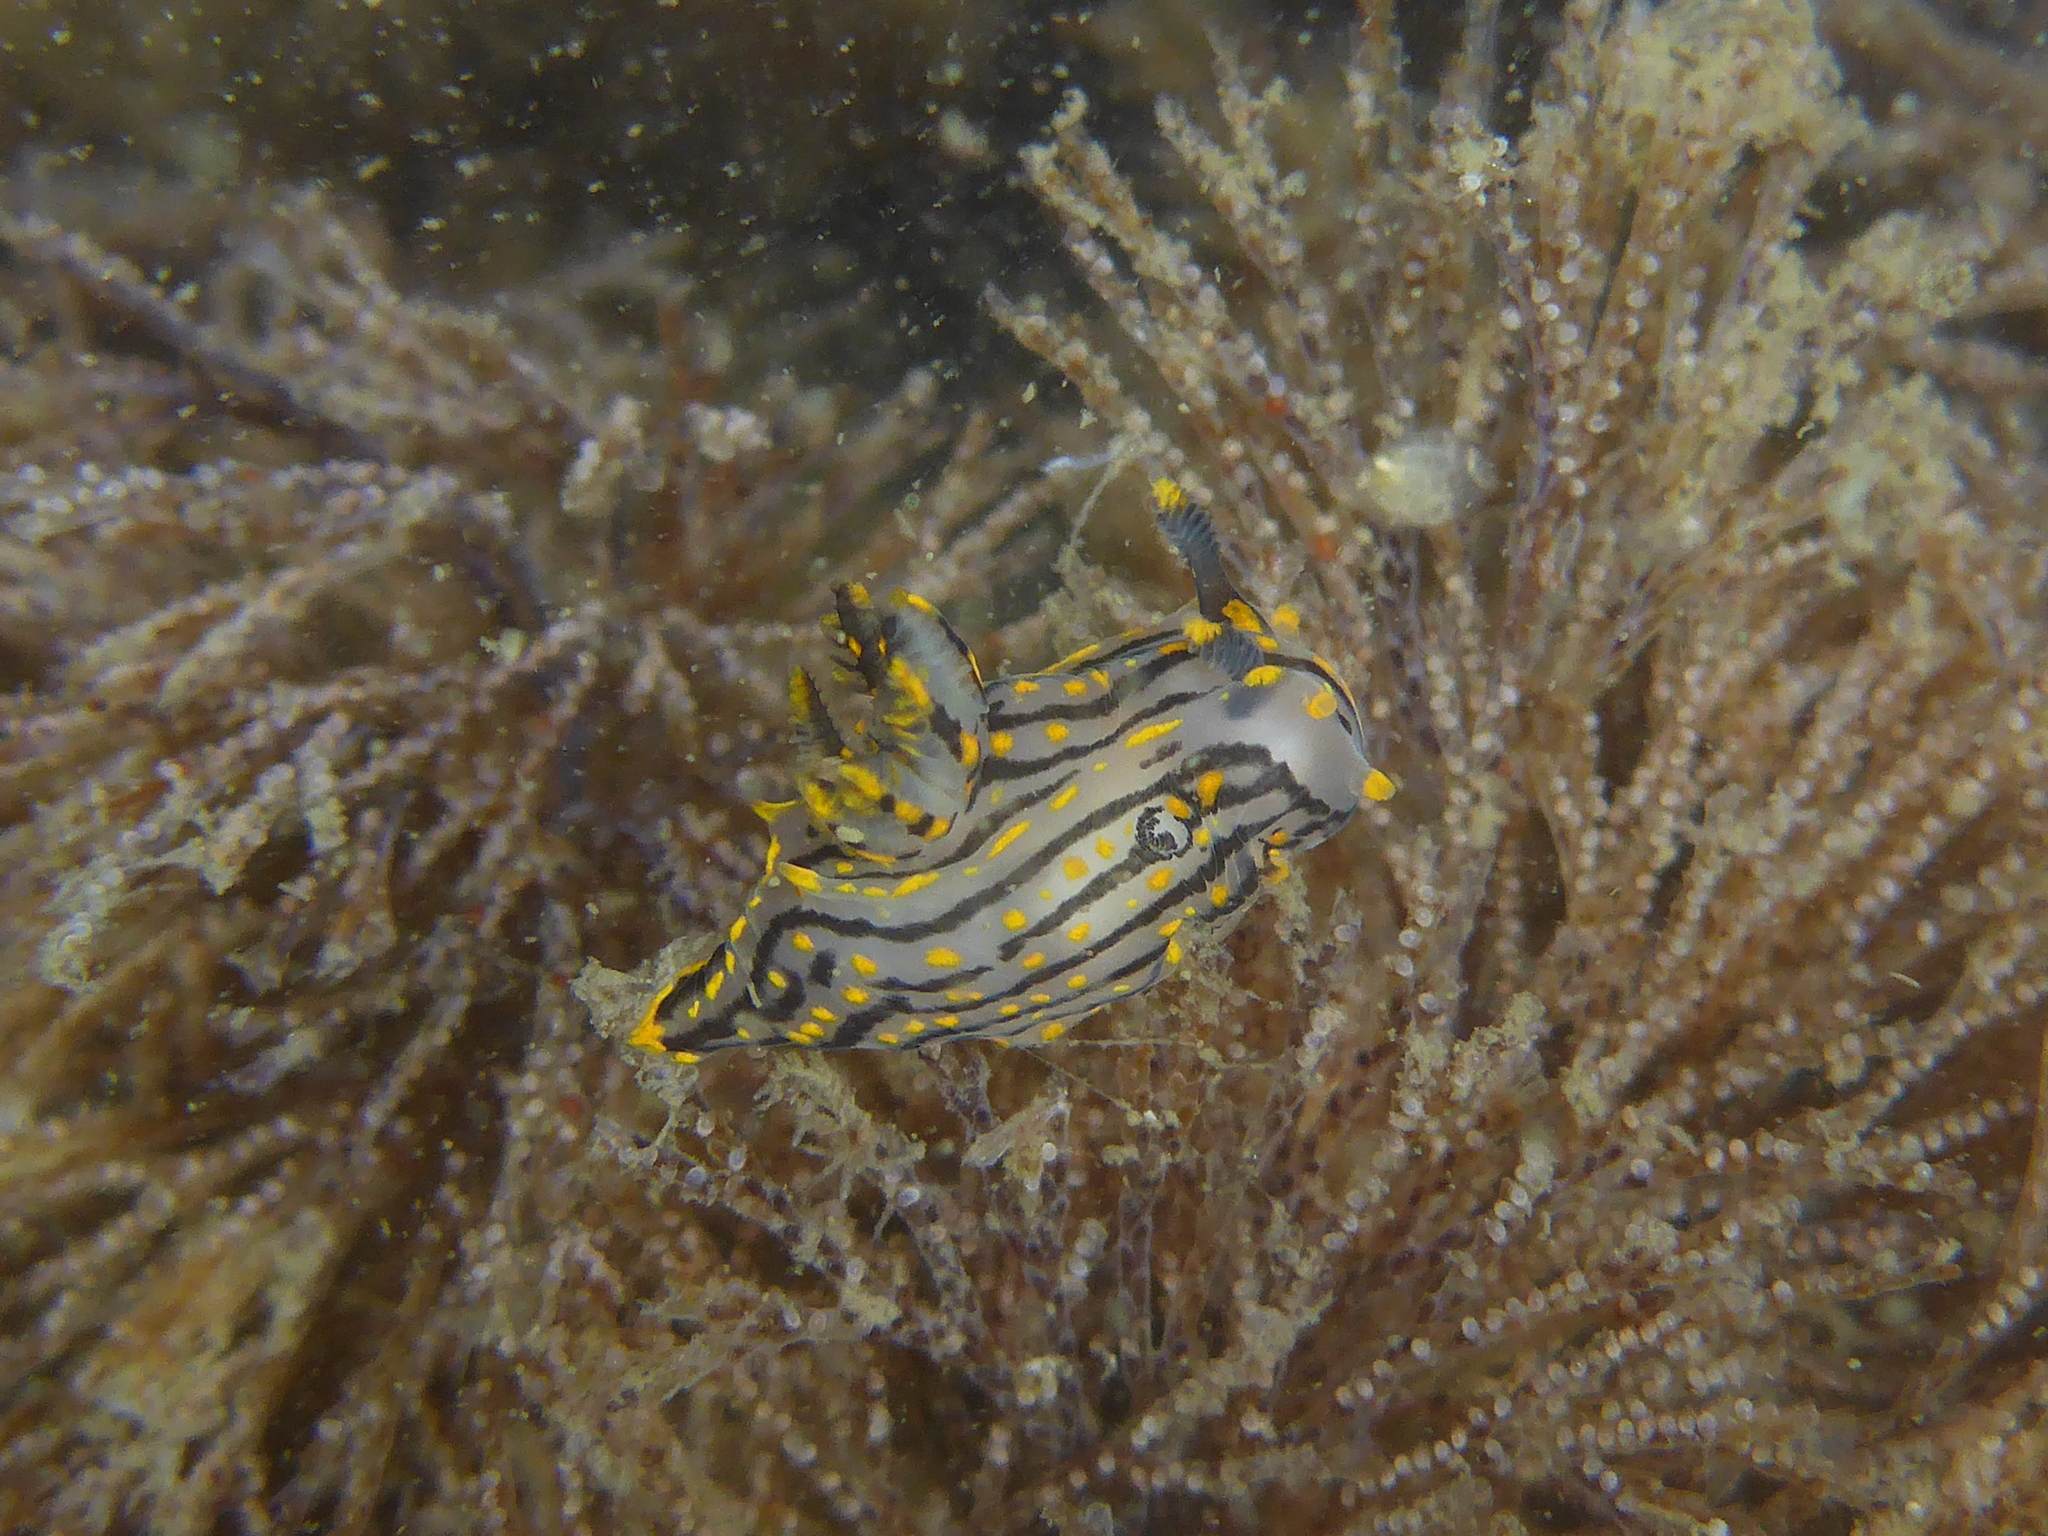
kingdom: Animalia
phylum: Mollusca
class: Gastropoda
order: Nudibranchia
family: Polyceridae
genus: Polycera
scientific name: Polycera atra
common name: Orange-spike polycera
